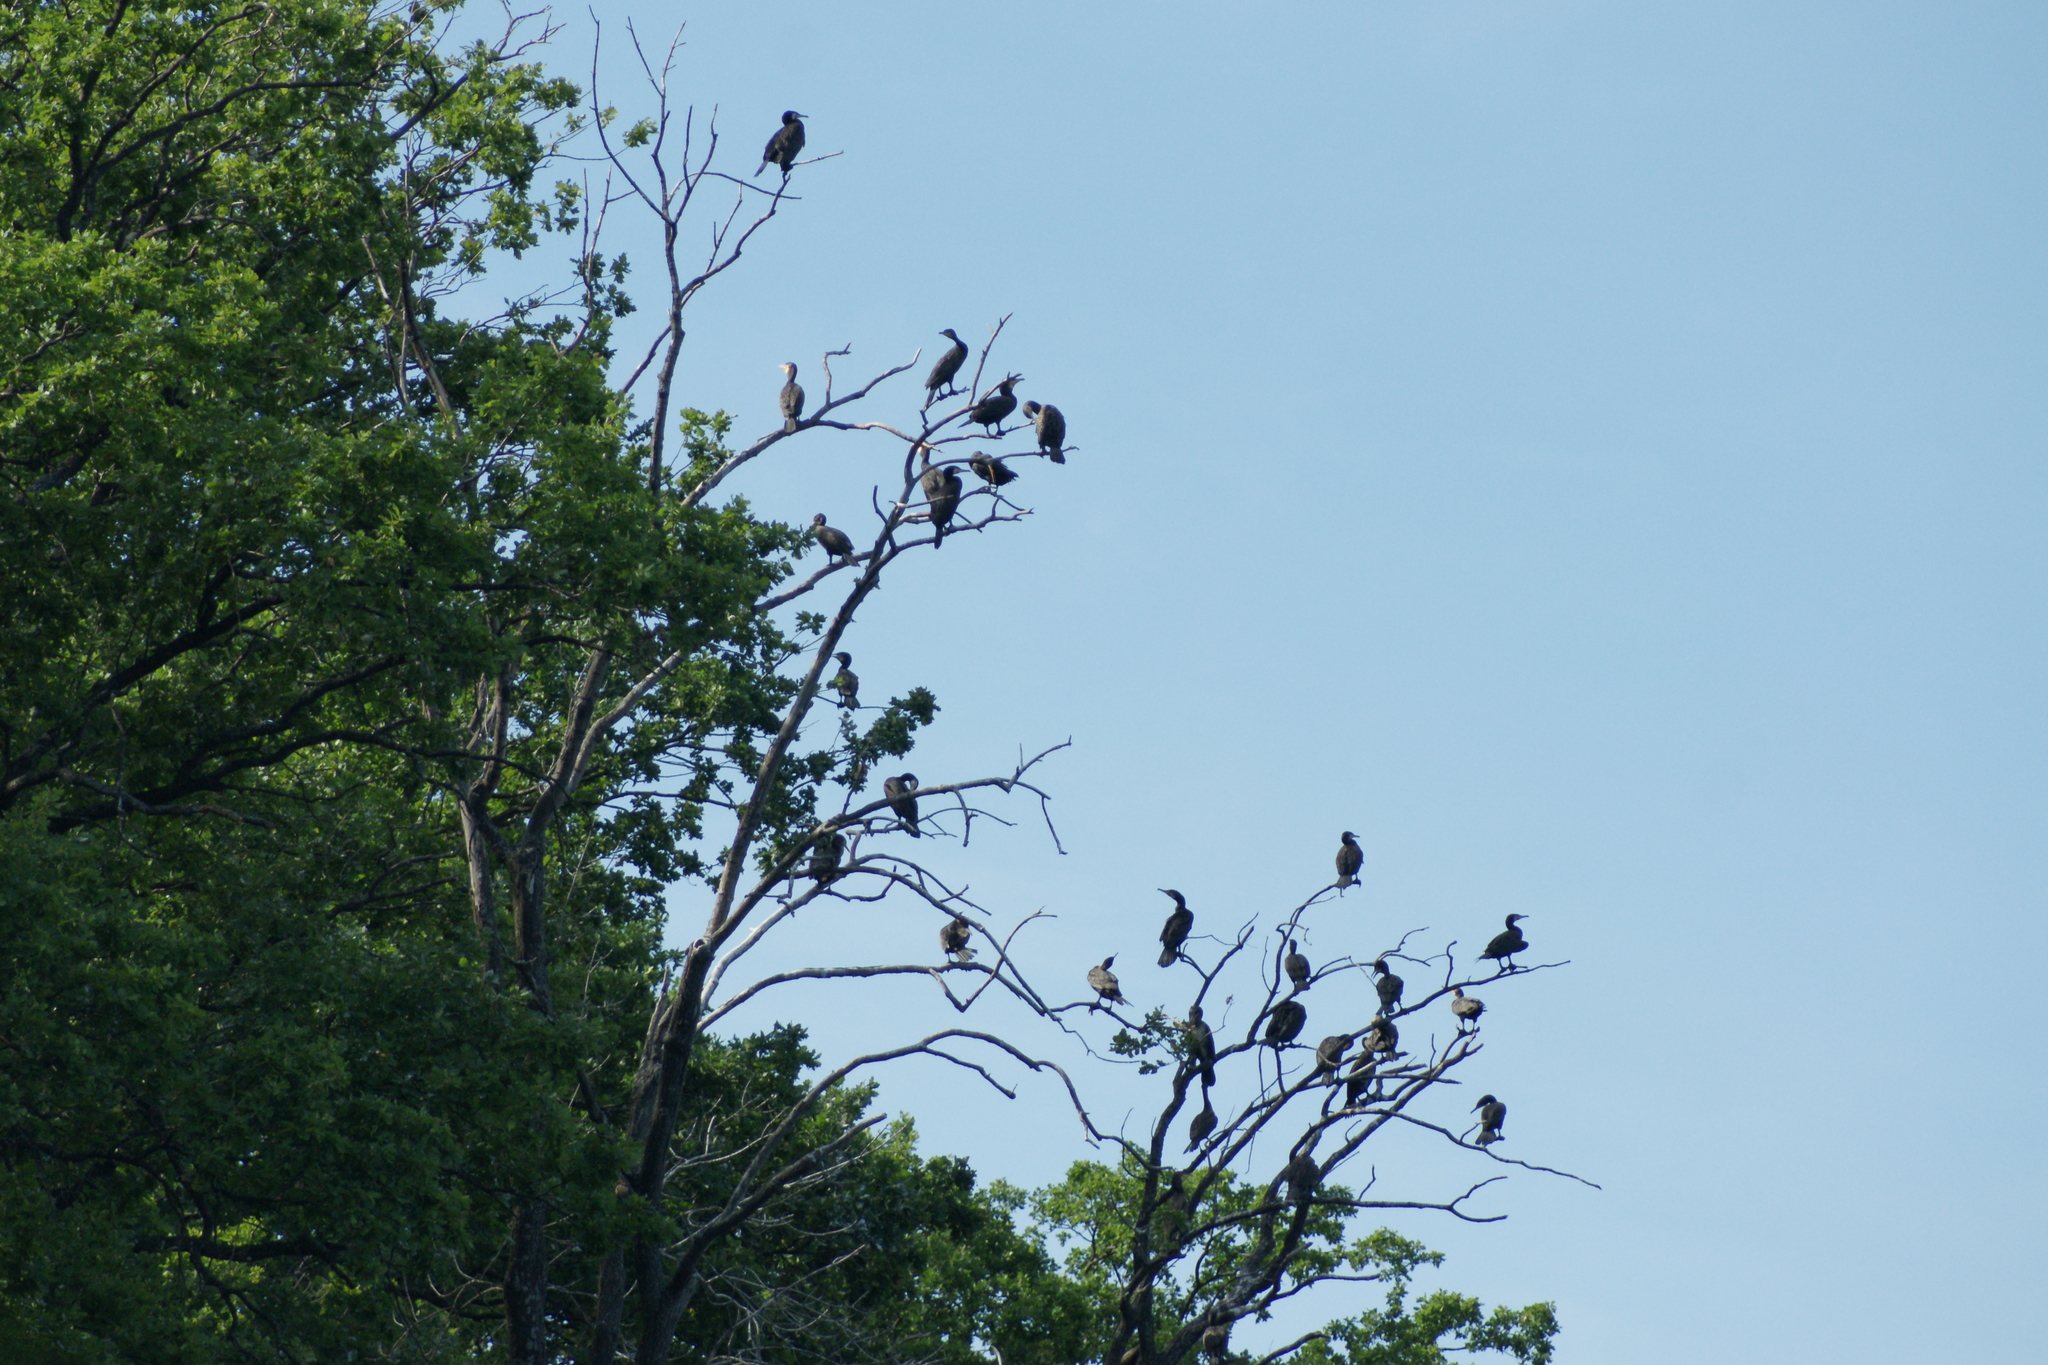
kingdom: Animalia
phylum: Chordata
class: Aves
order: Suliformes
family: Phalacrocoracidae
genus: Phalacrocorax
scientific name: Phalacrocorax carbo
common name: Great cormorant
